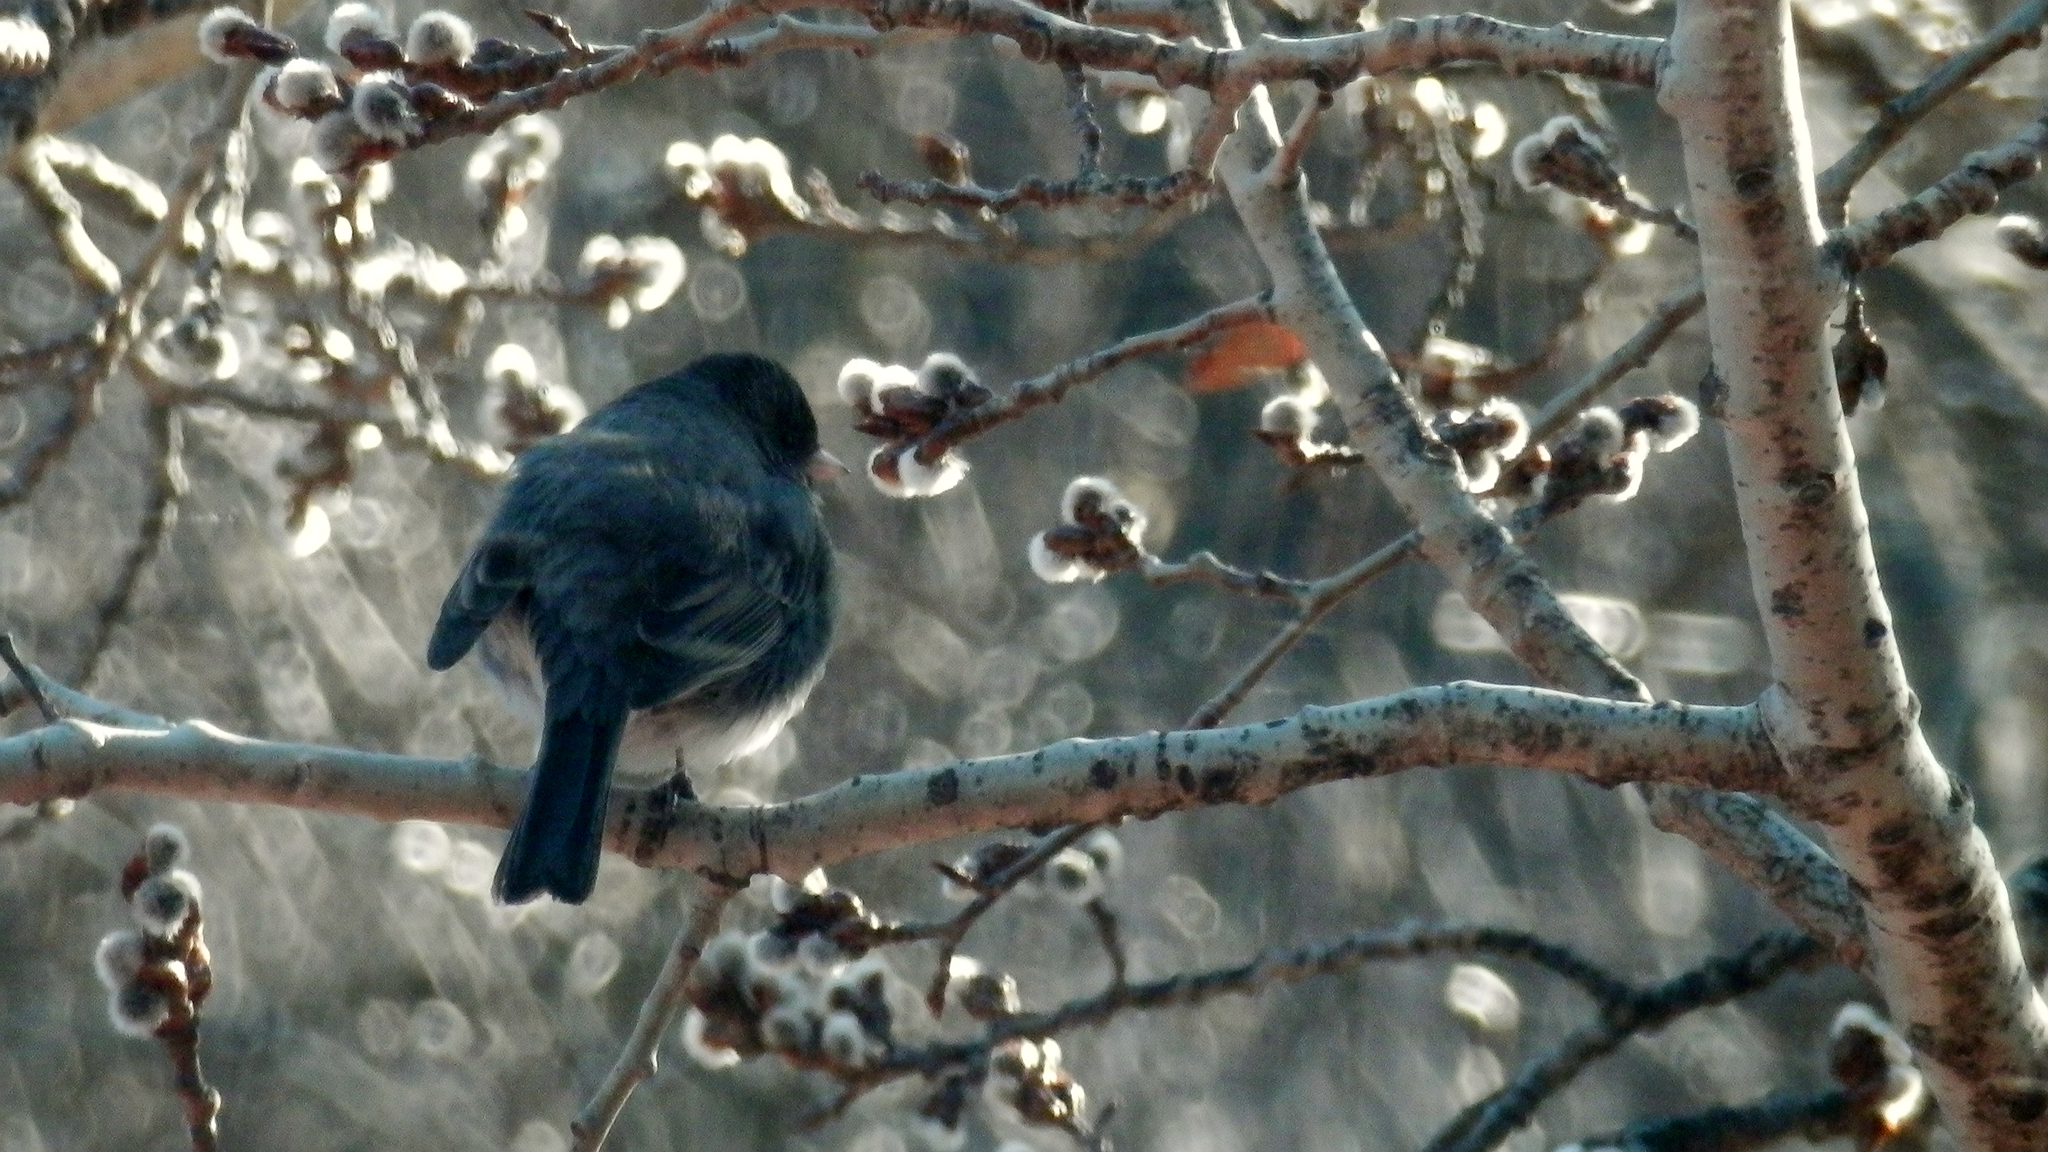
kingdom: Animalia
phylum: Chordata
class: Aves
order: Passeriformes
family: Passerellidae
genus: Junco
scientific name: Junco hyemalis
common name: Dark-eyed junco
